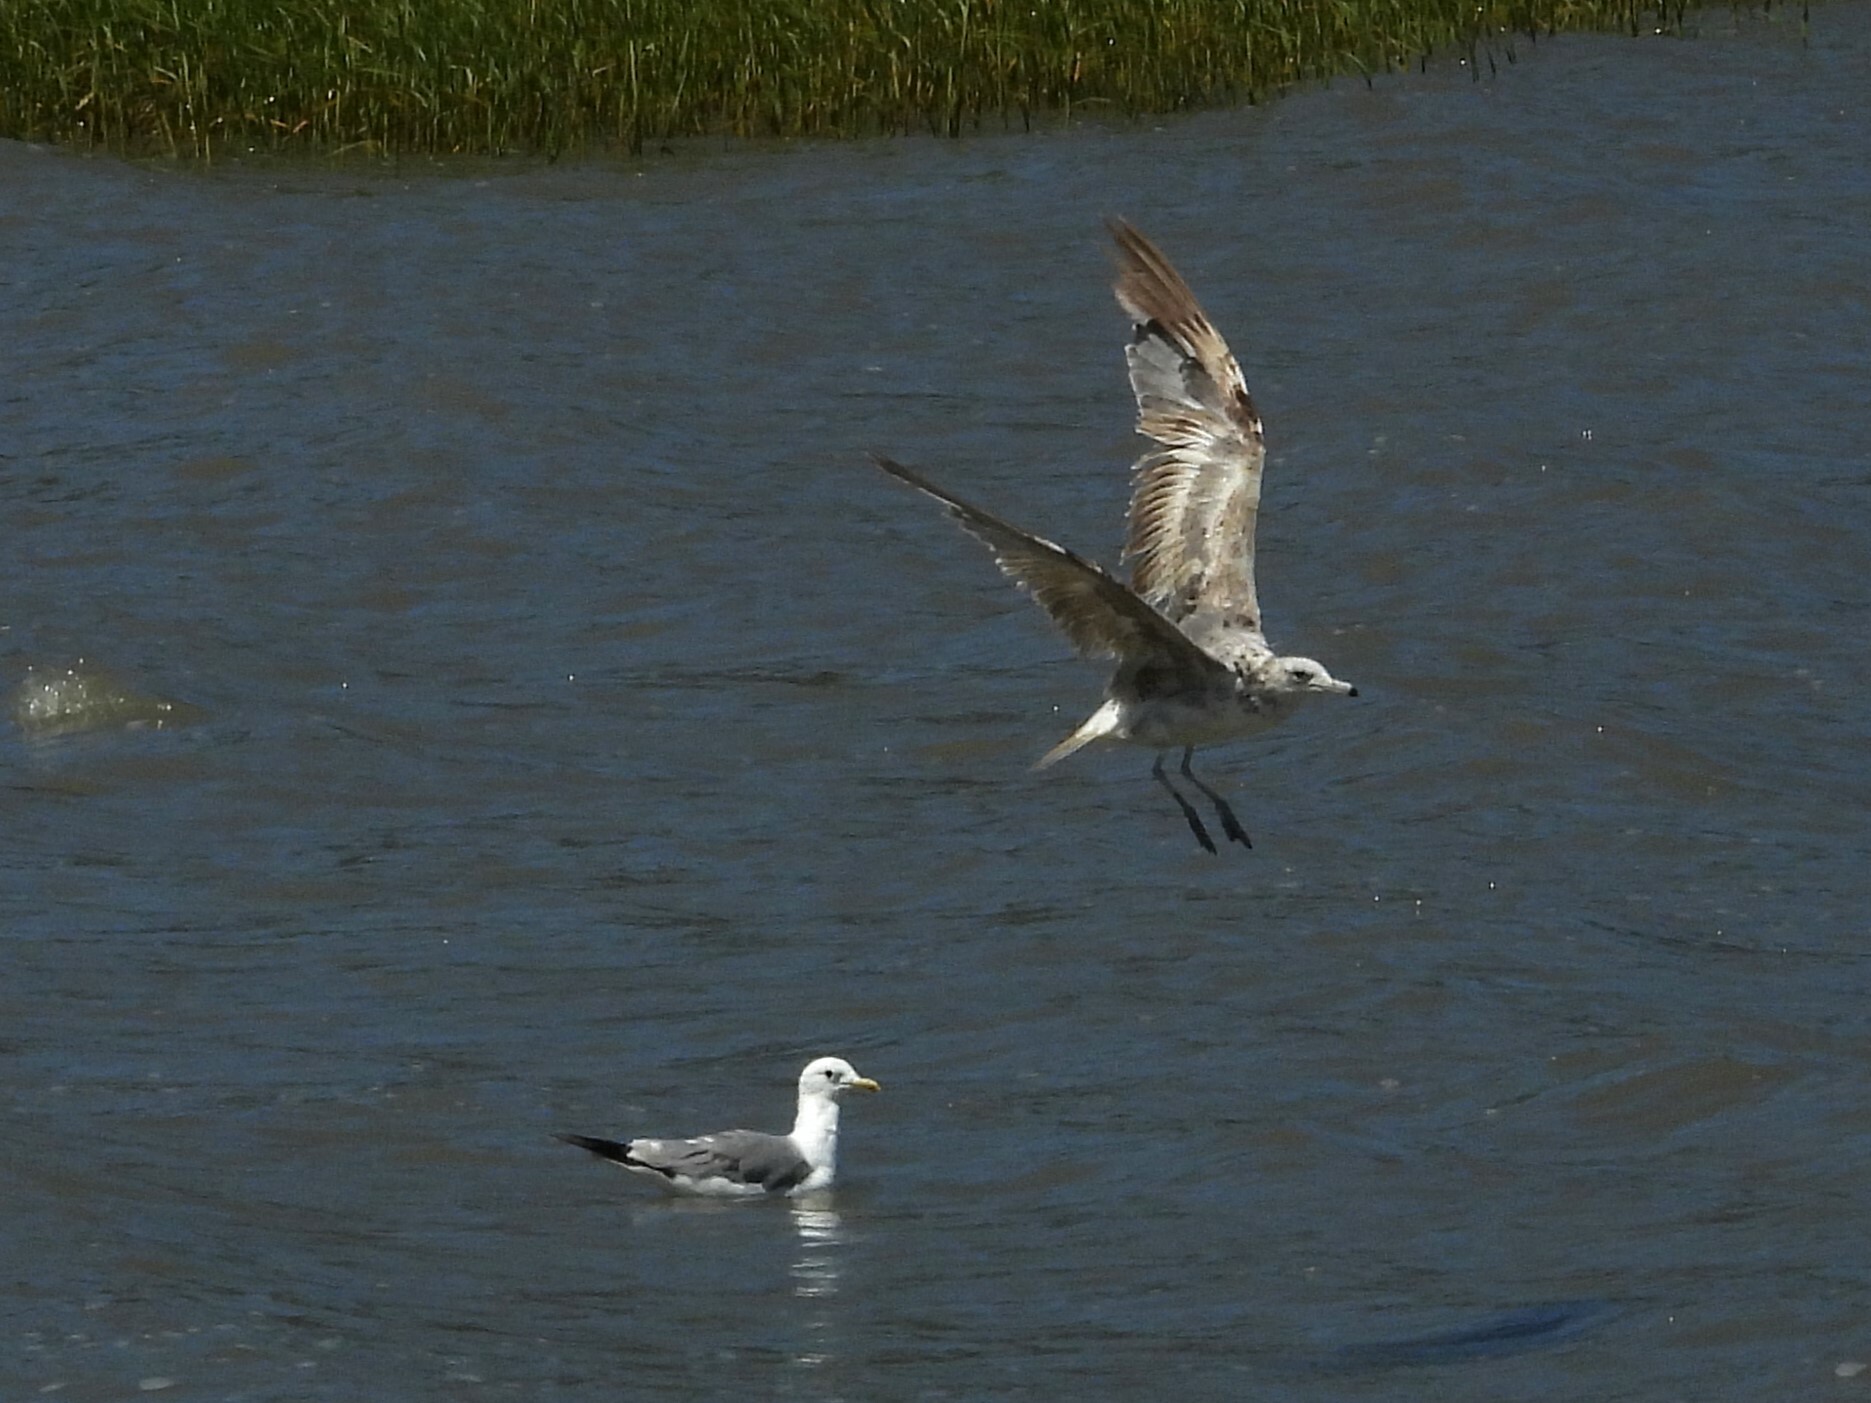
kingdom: Animalia
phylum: Chordata
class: Aves
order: Charadriiformes
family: Laridae
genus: Larus
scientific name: Larus californicus
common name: California gull
